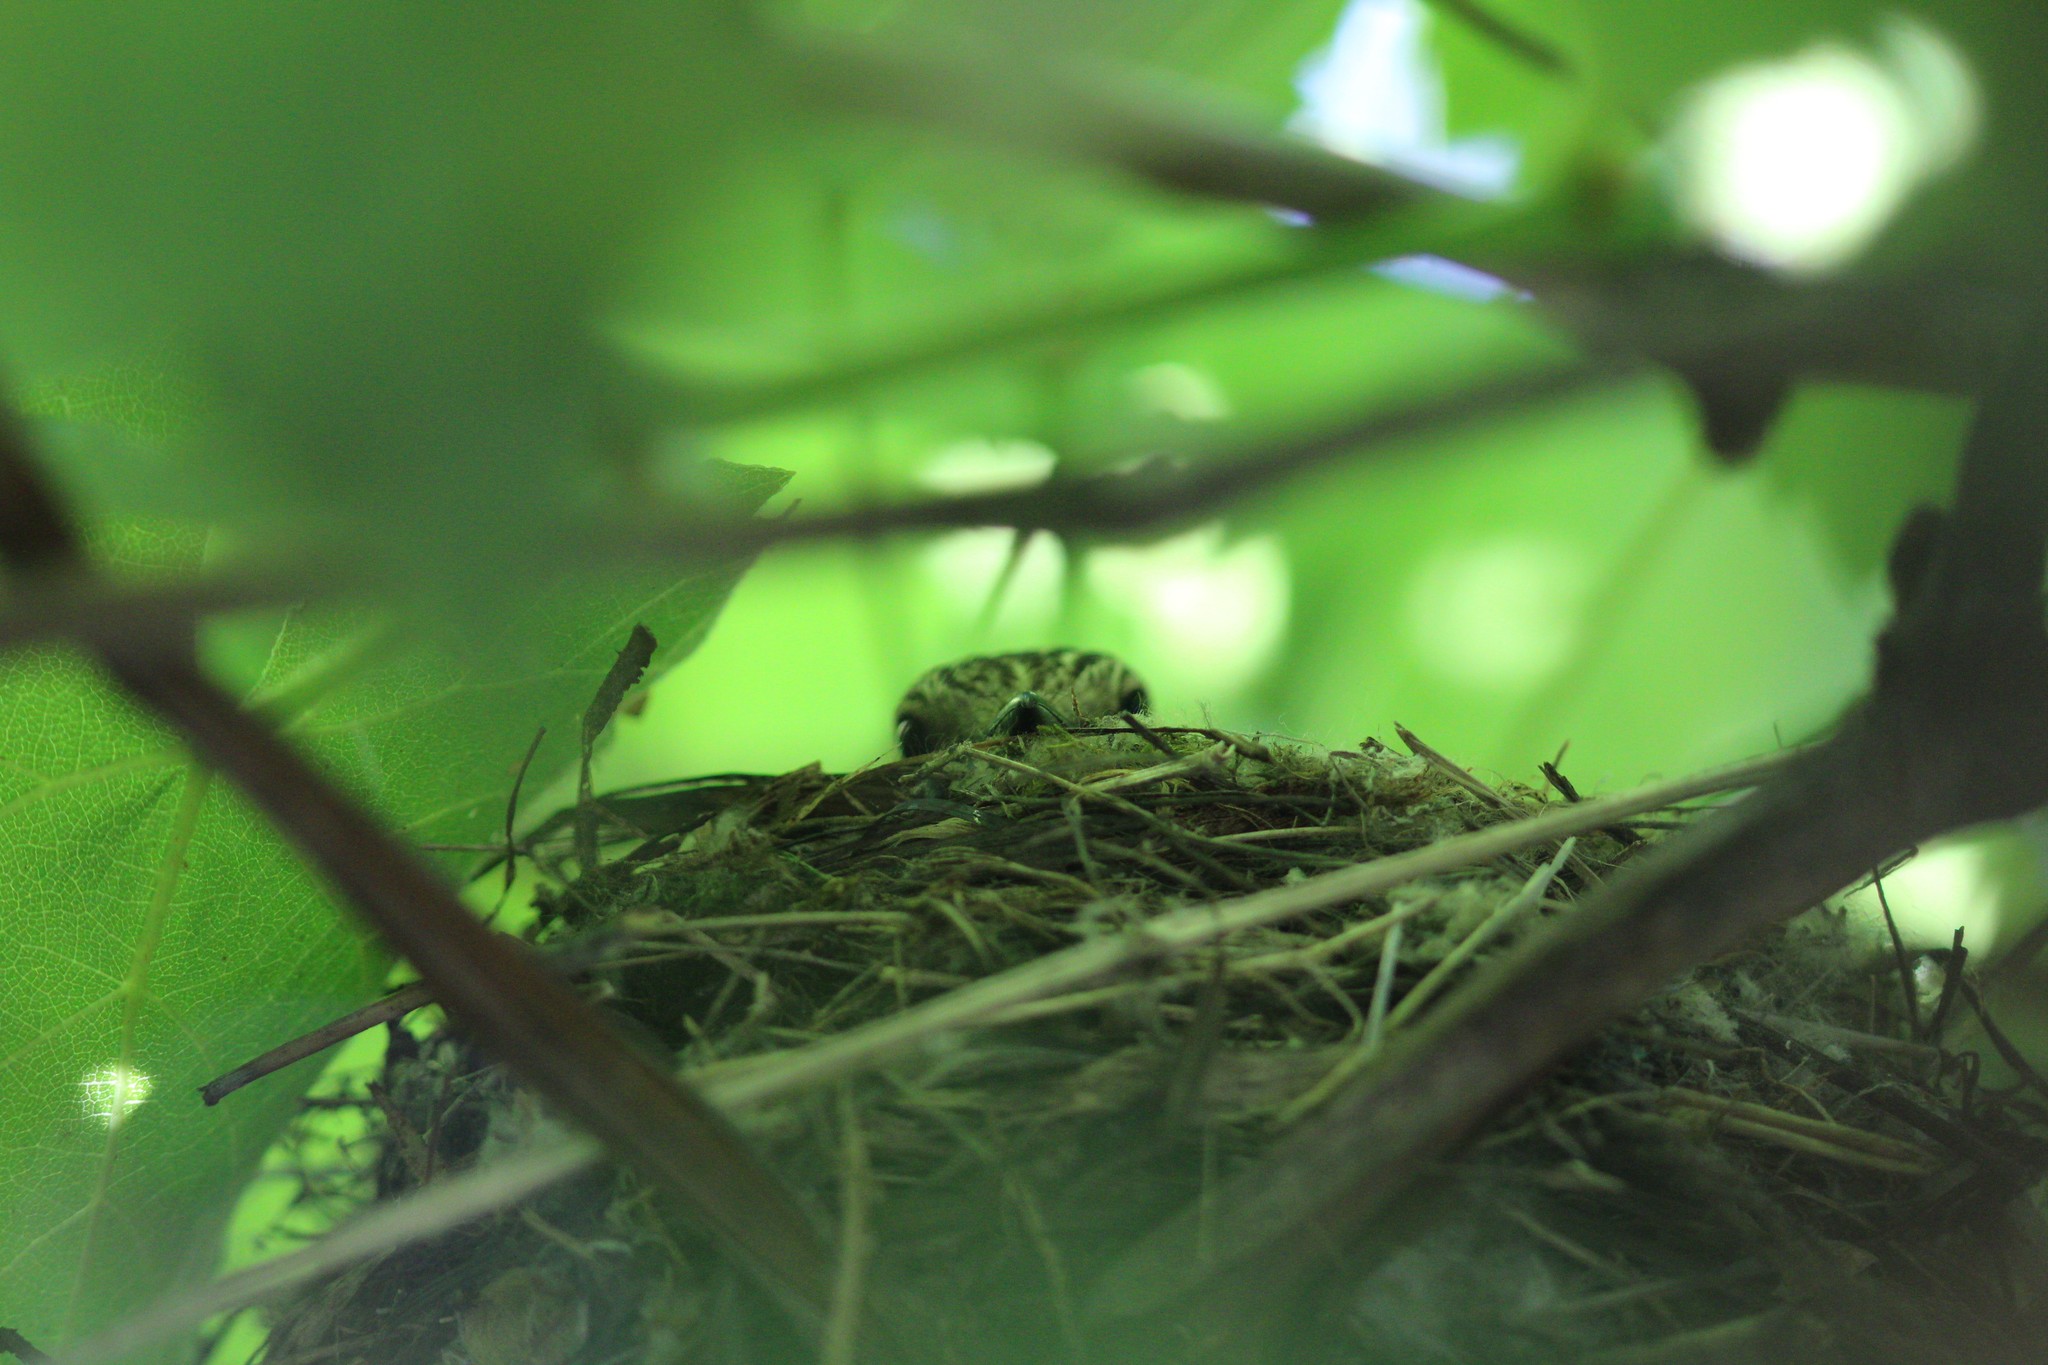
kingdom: Animalia
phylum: Chordata
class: Aves
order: Passeriformes
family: Muscicapidae
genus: Muscicapa
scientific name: Muscicapa striata
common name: Spotted flycatcher
